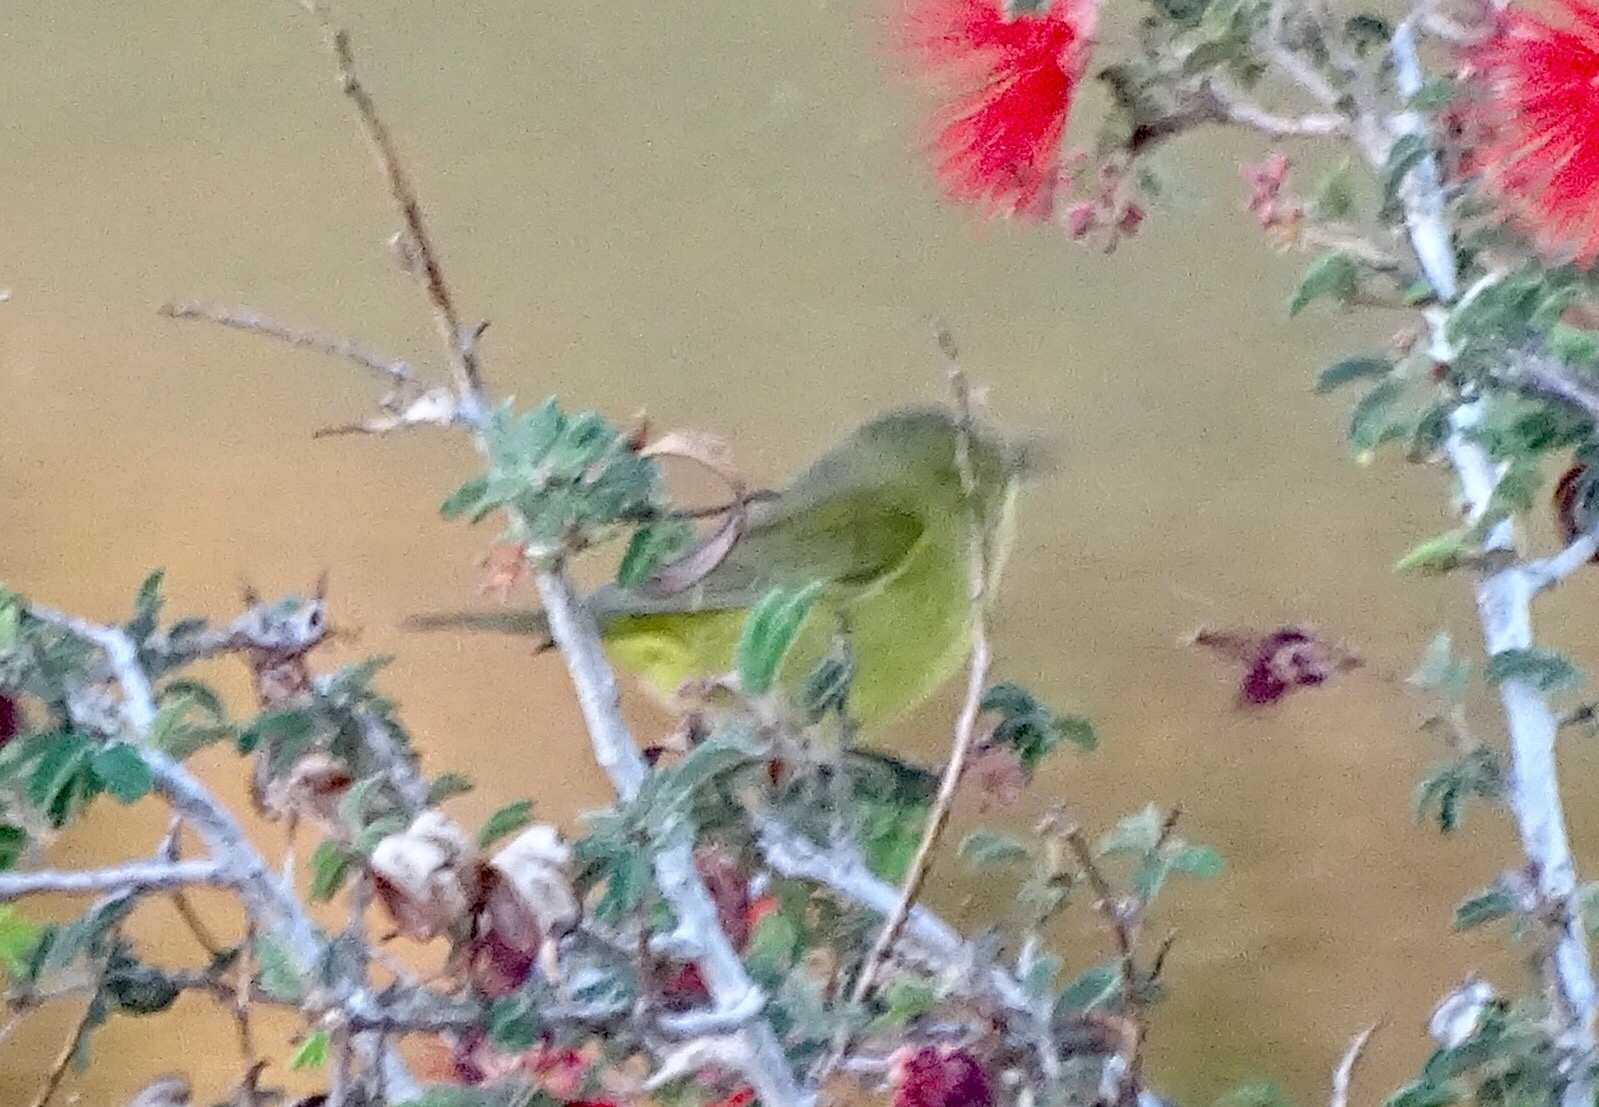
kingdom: Animalia
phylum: Chordata
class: Aves
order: Passeriformes
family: Parulidae
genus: Leiothlypis
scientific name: Leiothlypis celata
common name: Orange-crowned warbler
